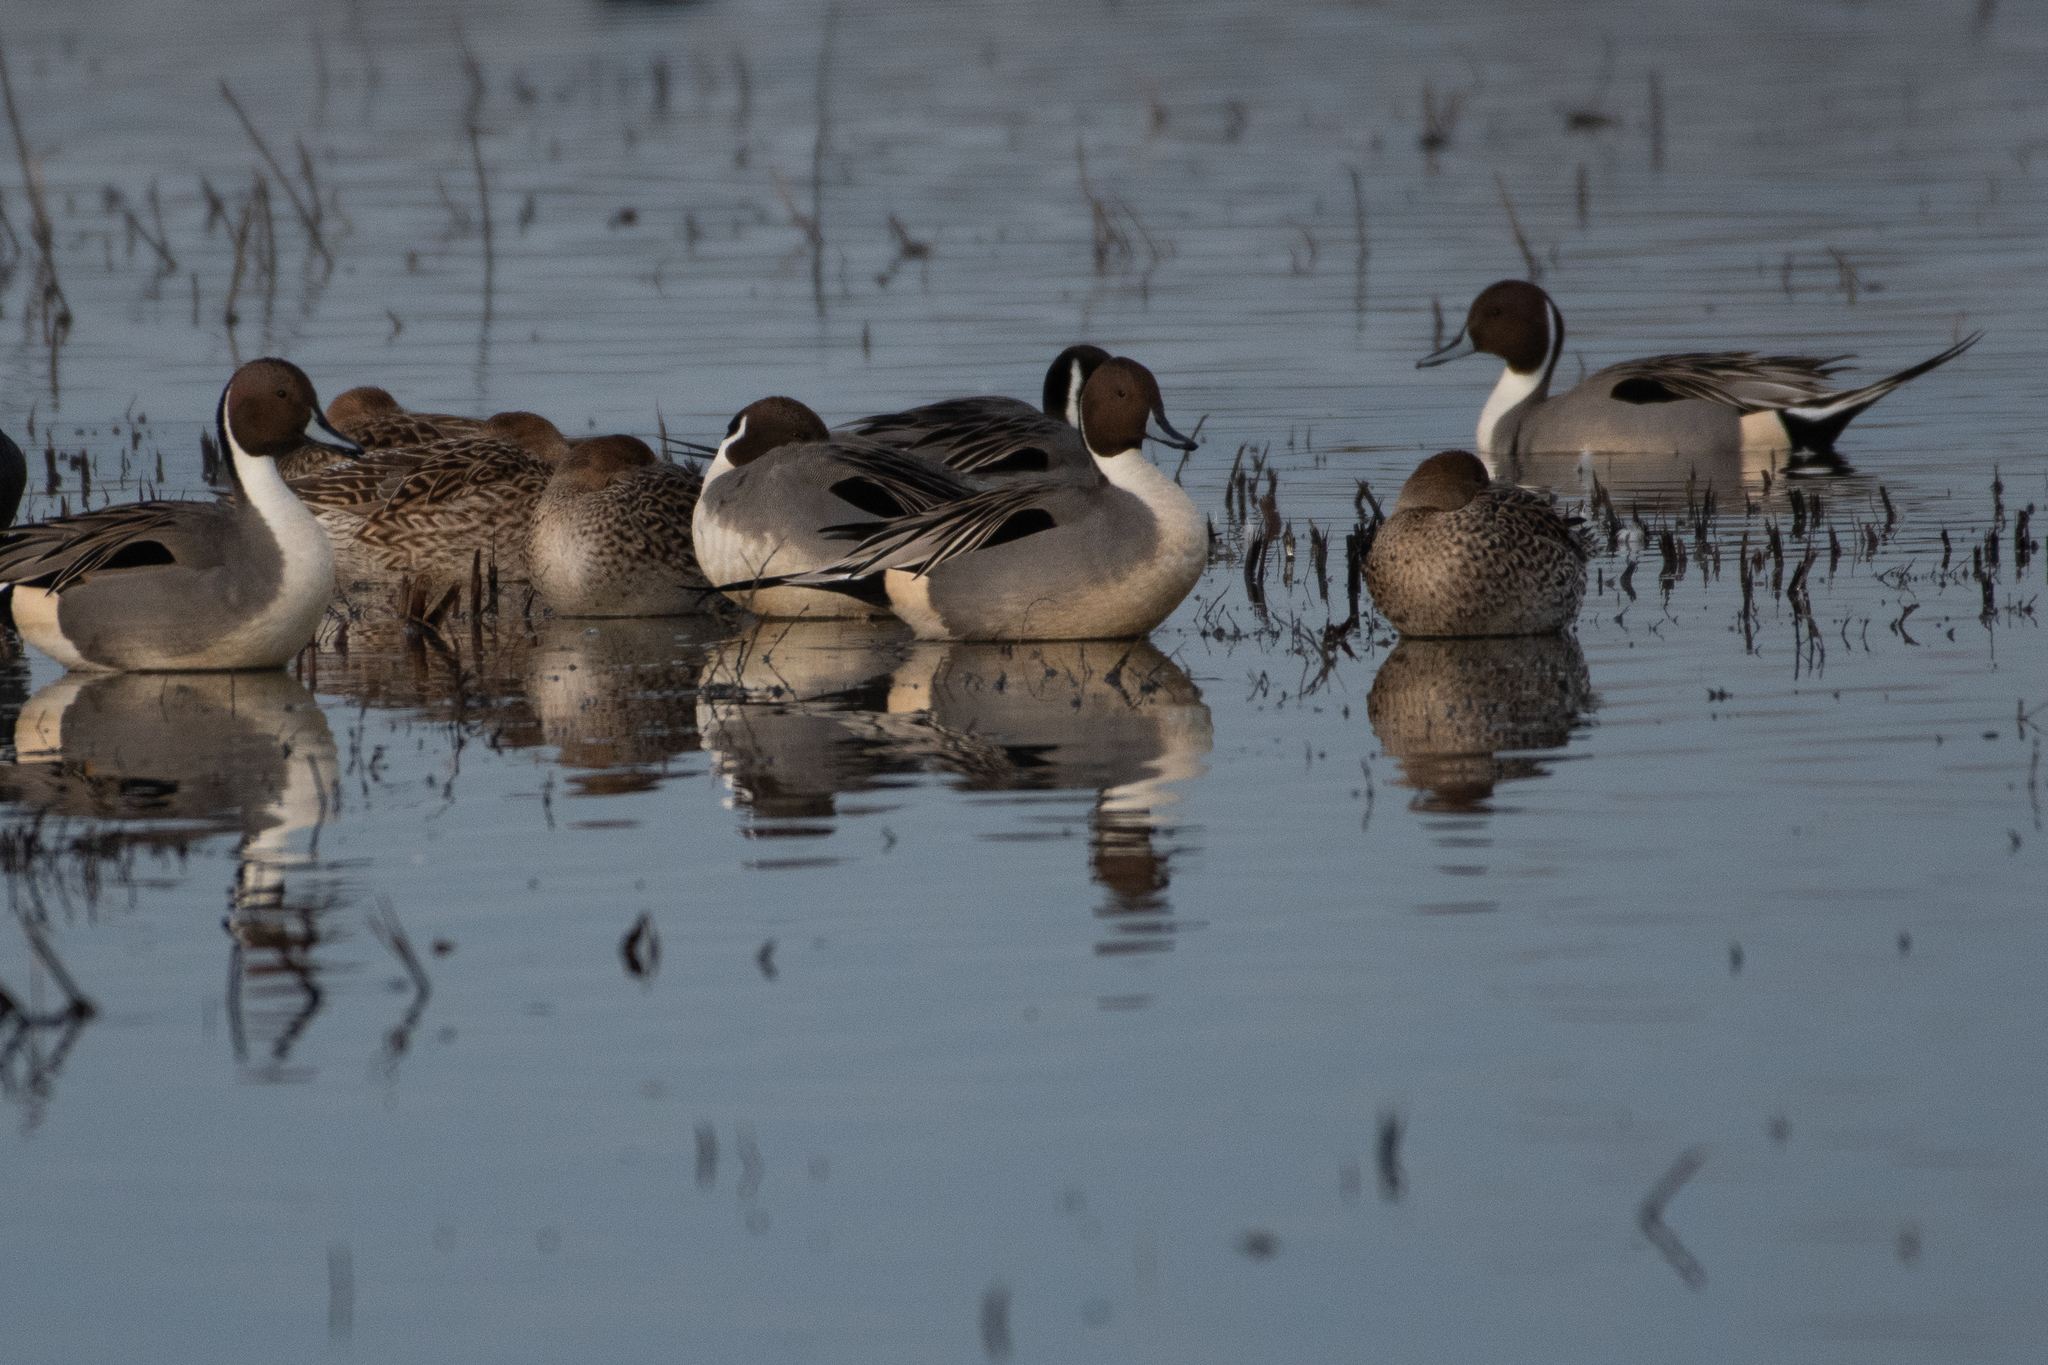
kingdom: Animalia
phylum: Chordata
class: Aves
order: Anseriformes
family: Anatidae
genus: Anas
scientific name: Anas acuta
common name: Northern pintail
